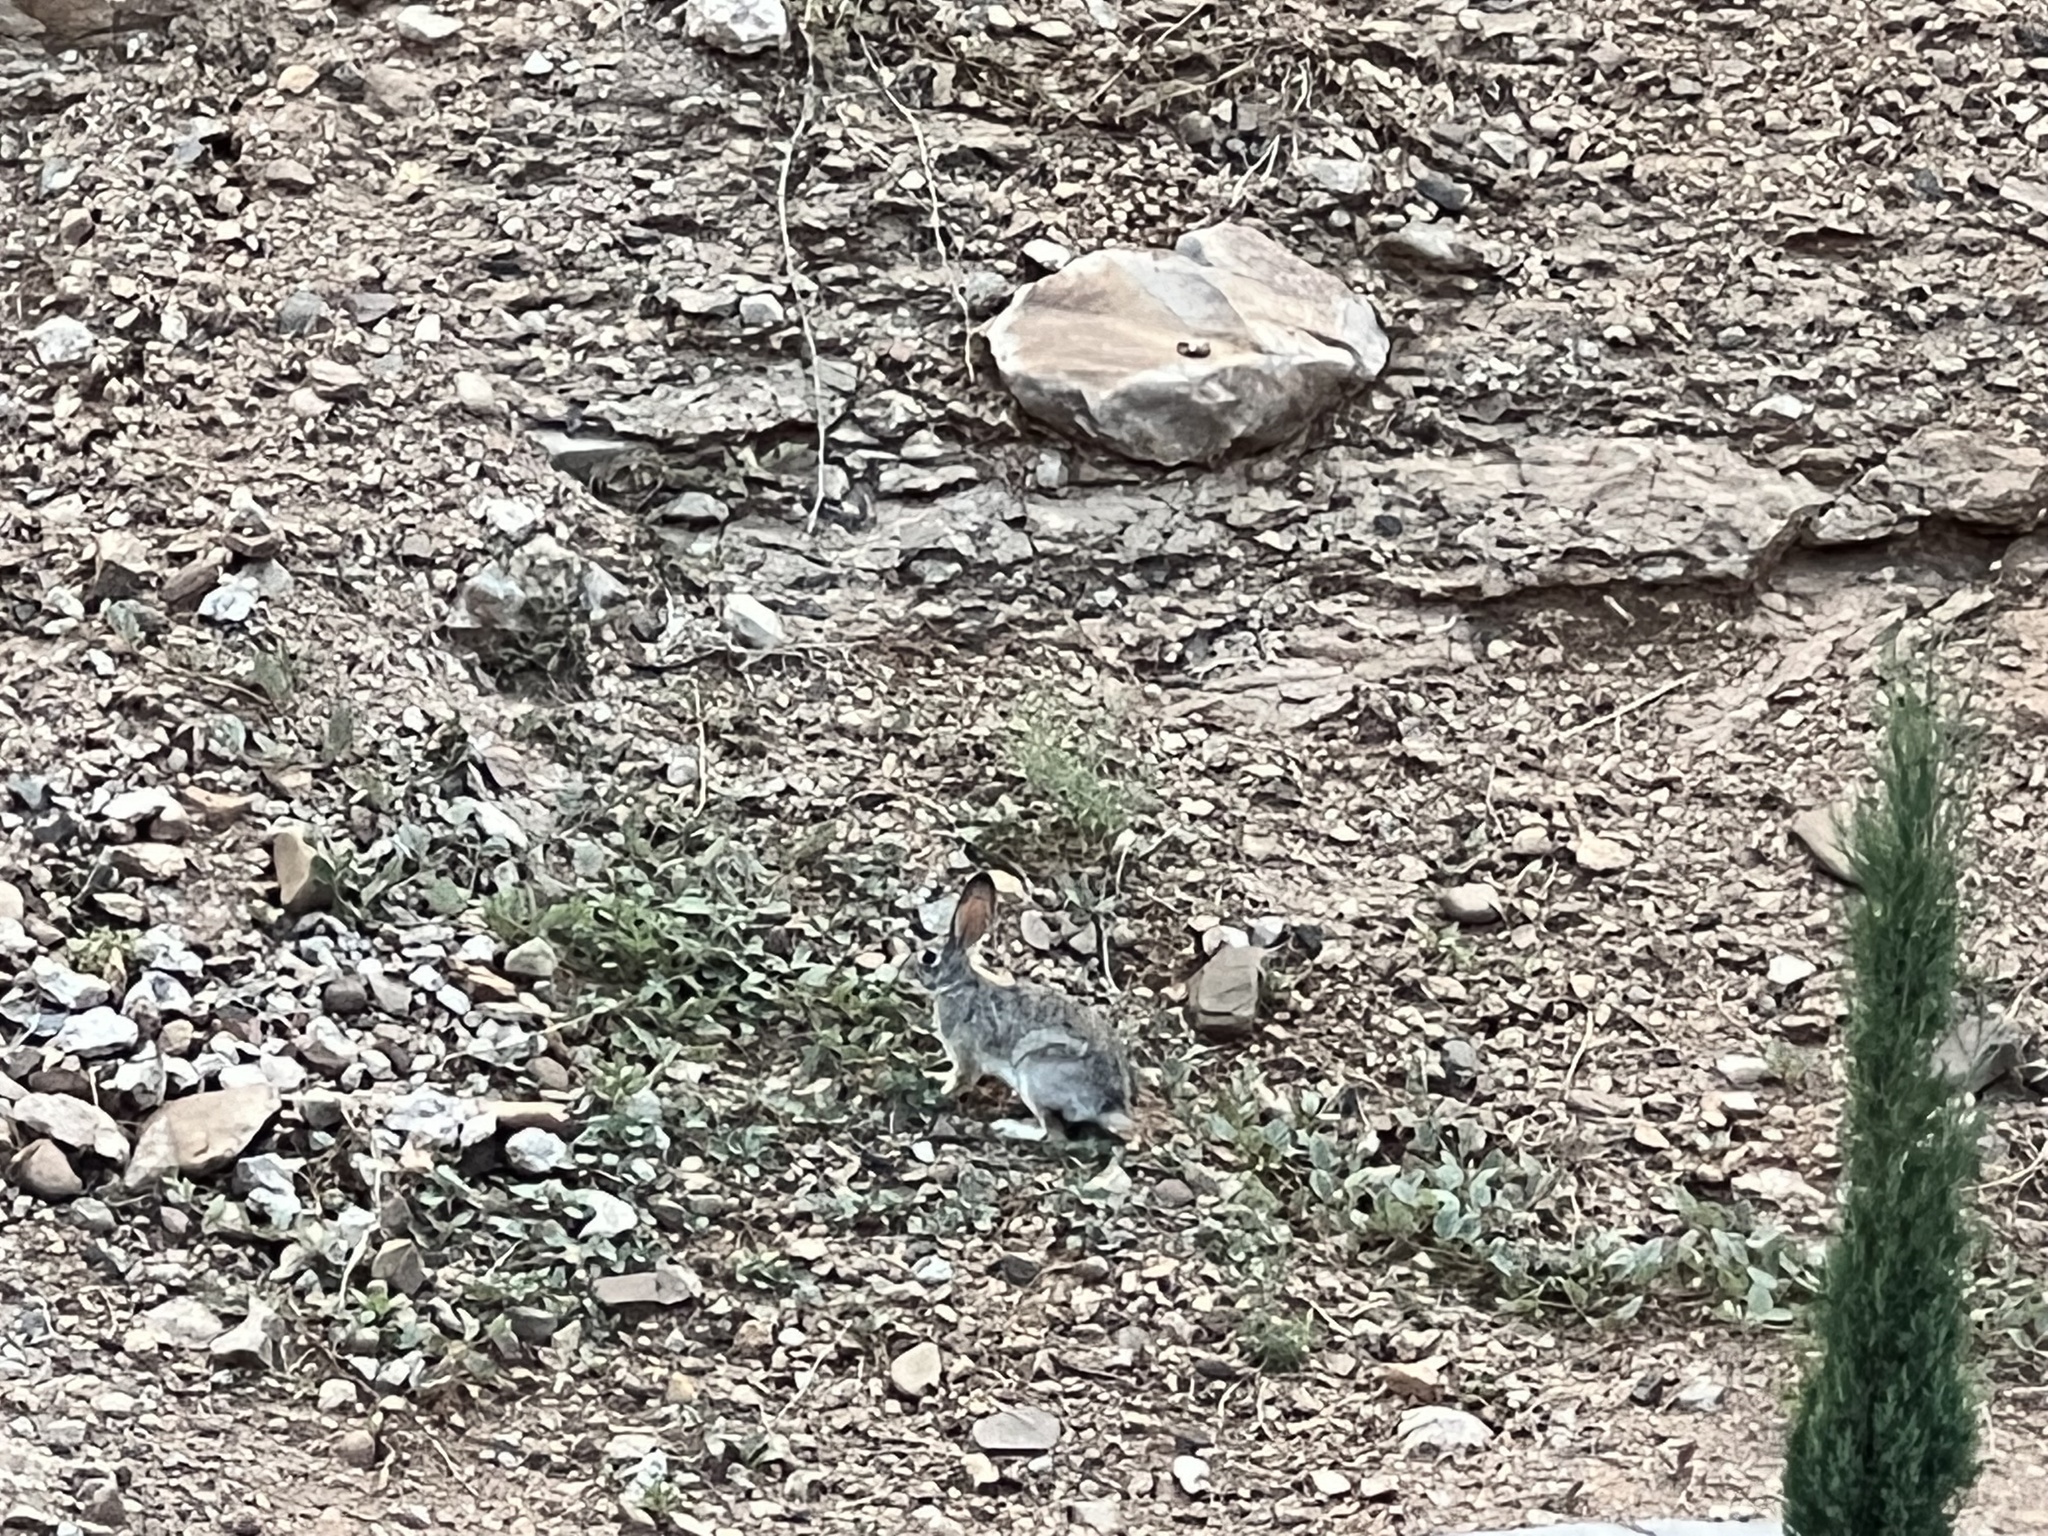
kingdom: Animalia
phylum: Chordata
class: Mammalia
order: Lagomorpha
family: Leporidae
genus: Sylvilagus
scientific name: Sylvilagus audubonii
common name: Desert cottontail
